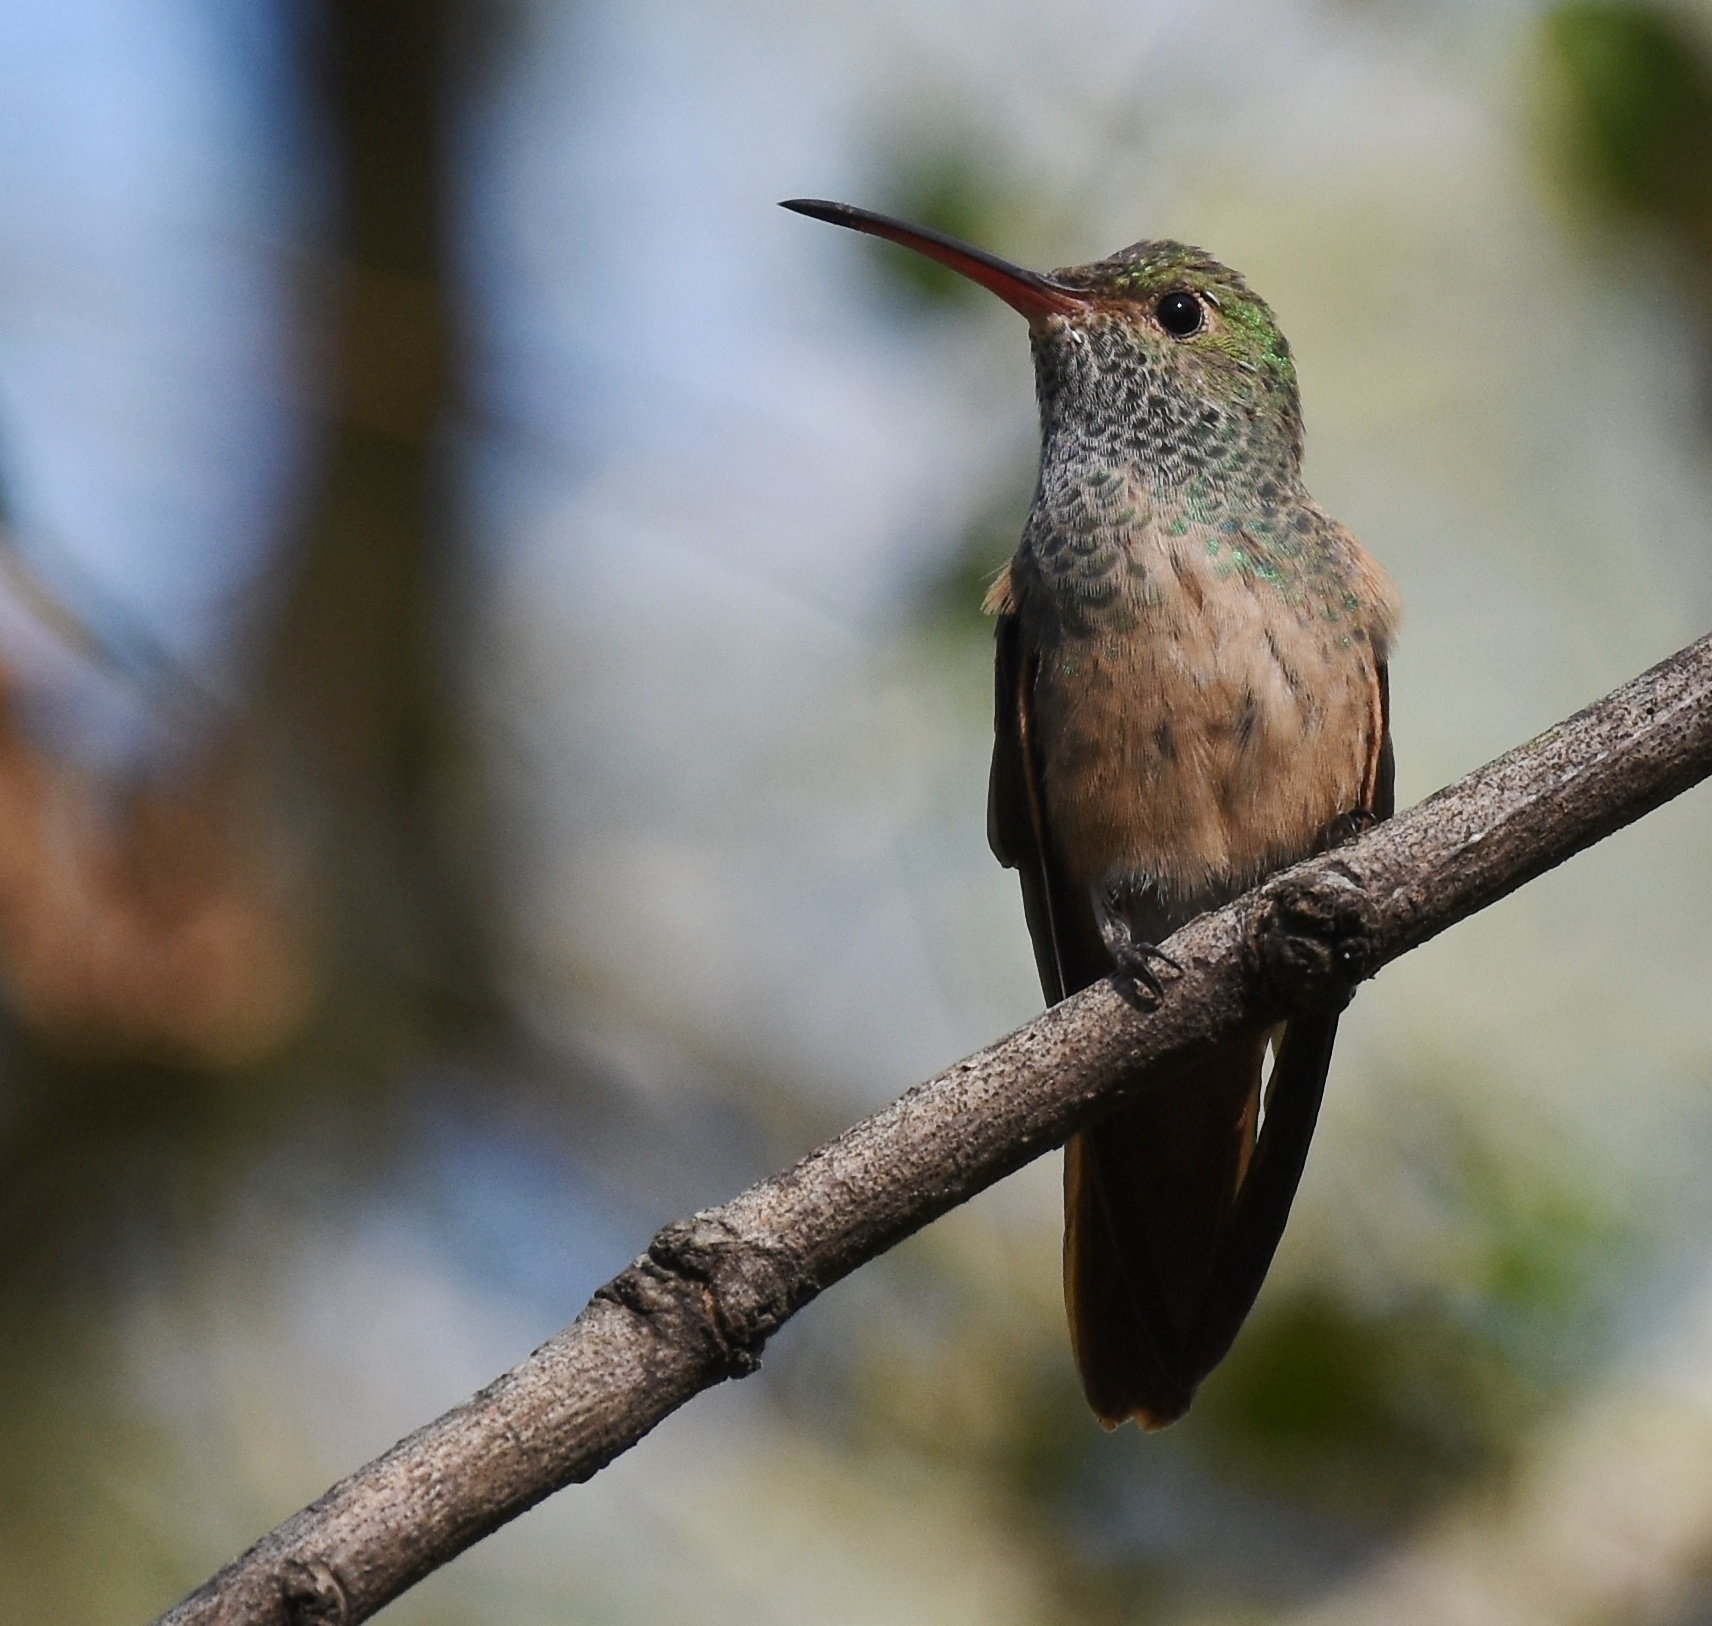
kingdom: Animalia
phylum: Chordata
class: Aves
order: Apodiformes
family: Trochilidae
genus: Amazilia
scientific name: Amazilia yucatanensis
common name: Buff-bellied hummingbird
